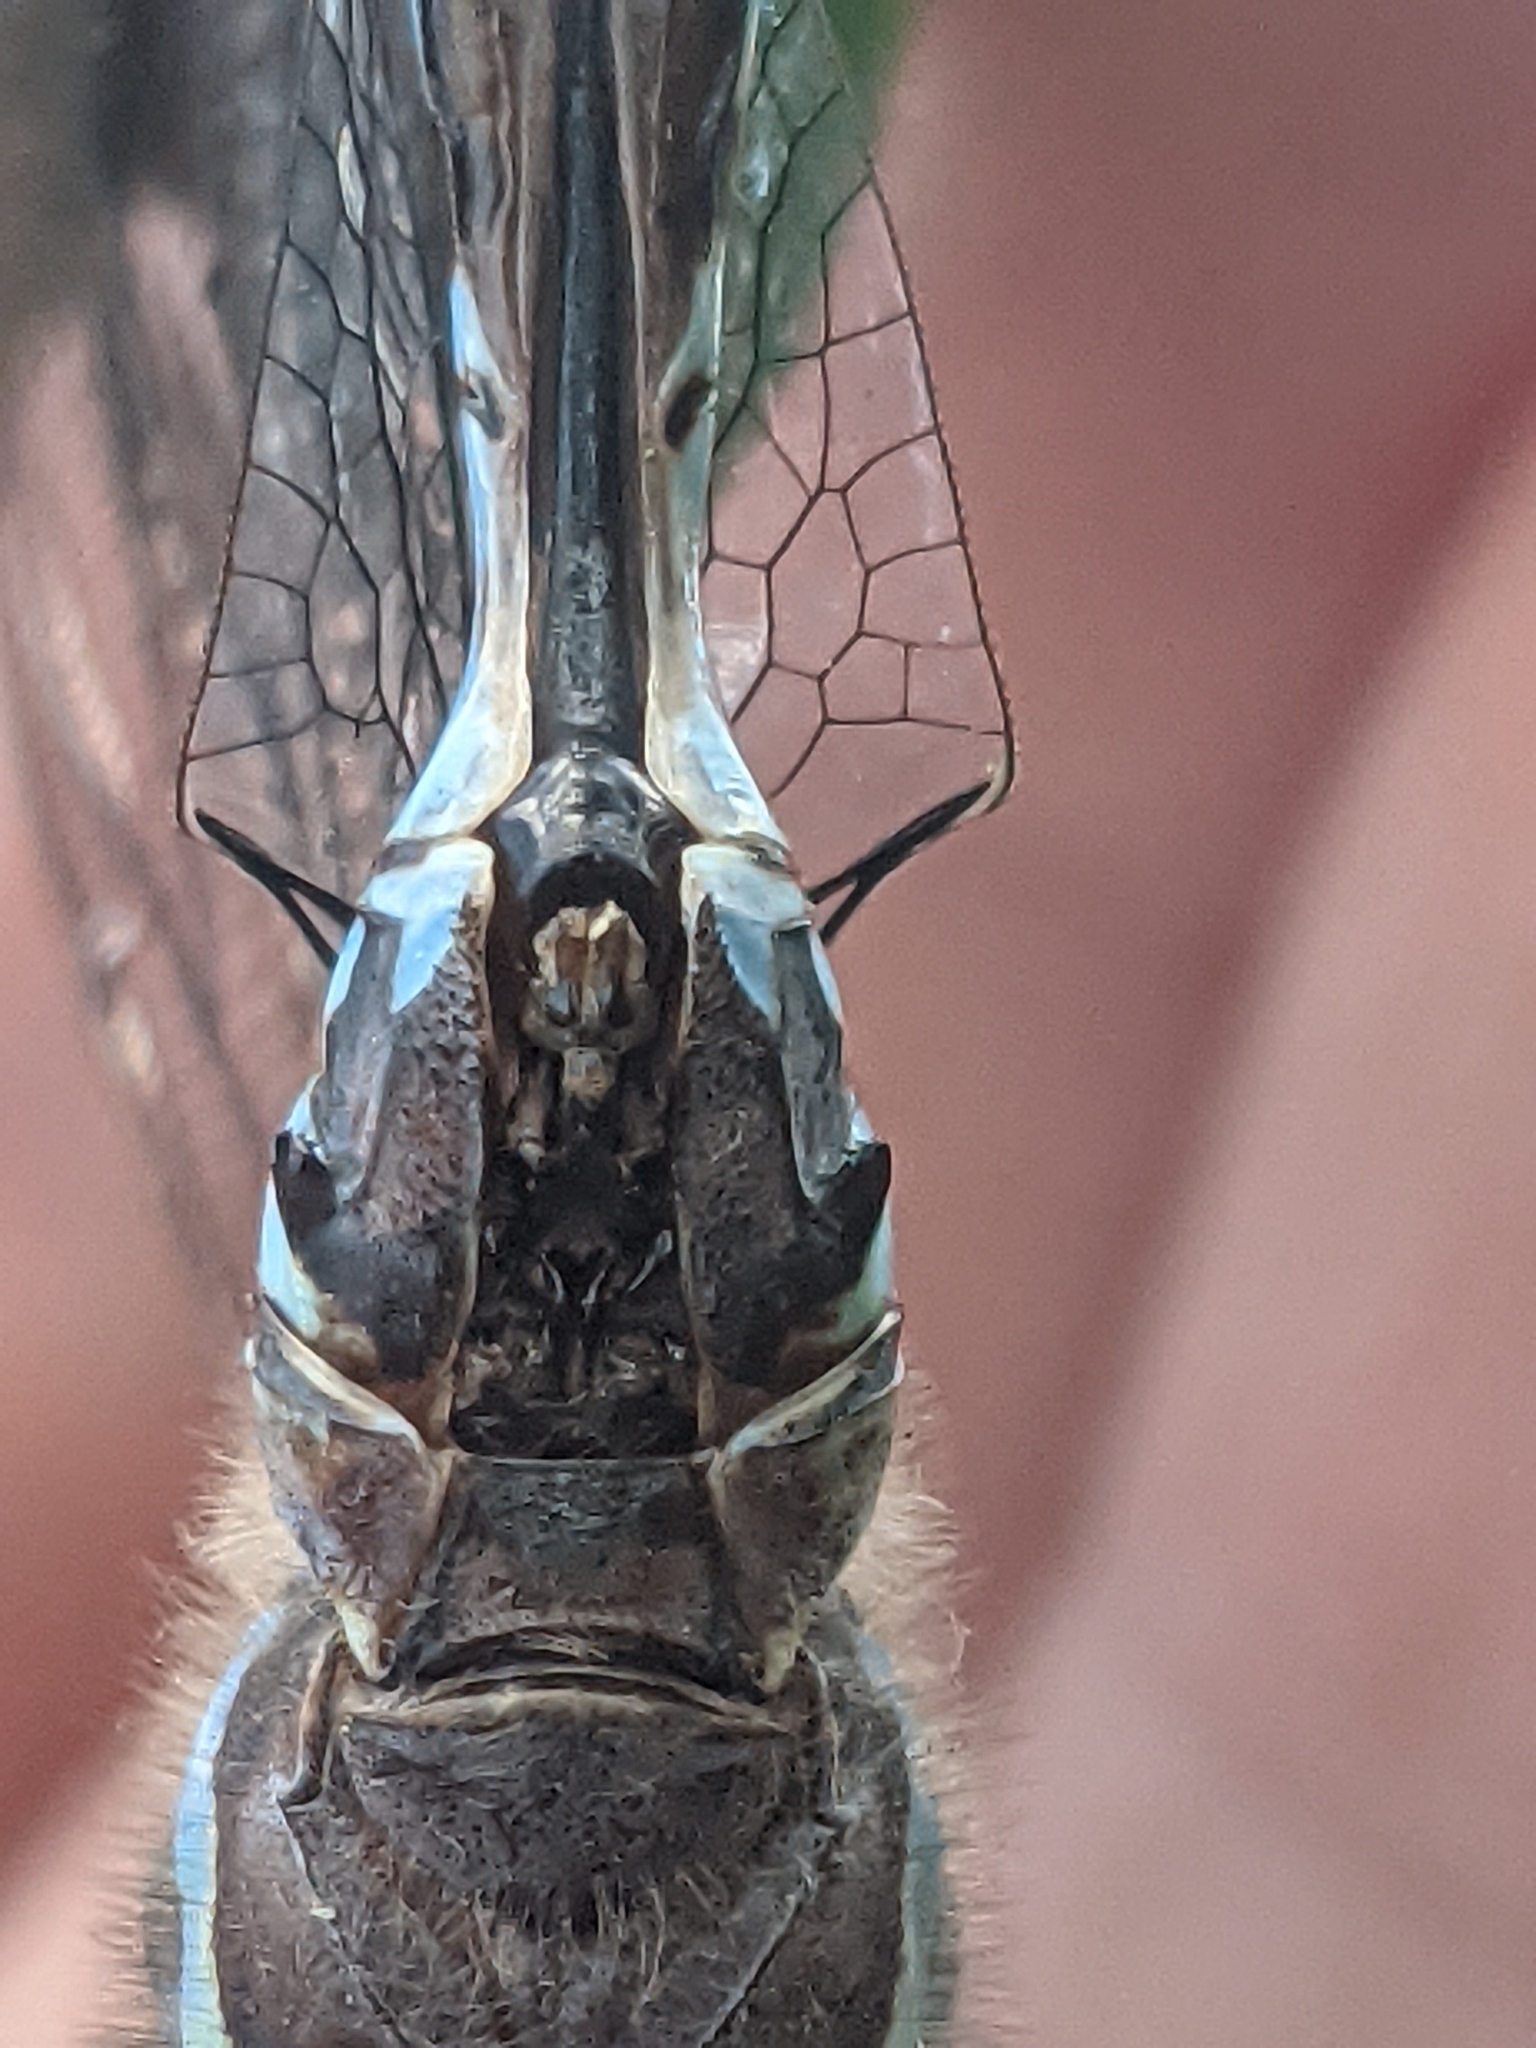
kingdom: Animalia
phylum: Arthropoda
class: Insecta
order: Odonata
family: Aeshnidae
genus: Aeshna
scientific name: Aeshna canadensis
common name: Canada darner
